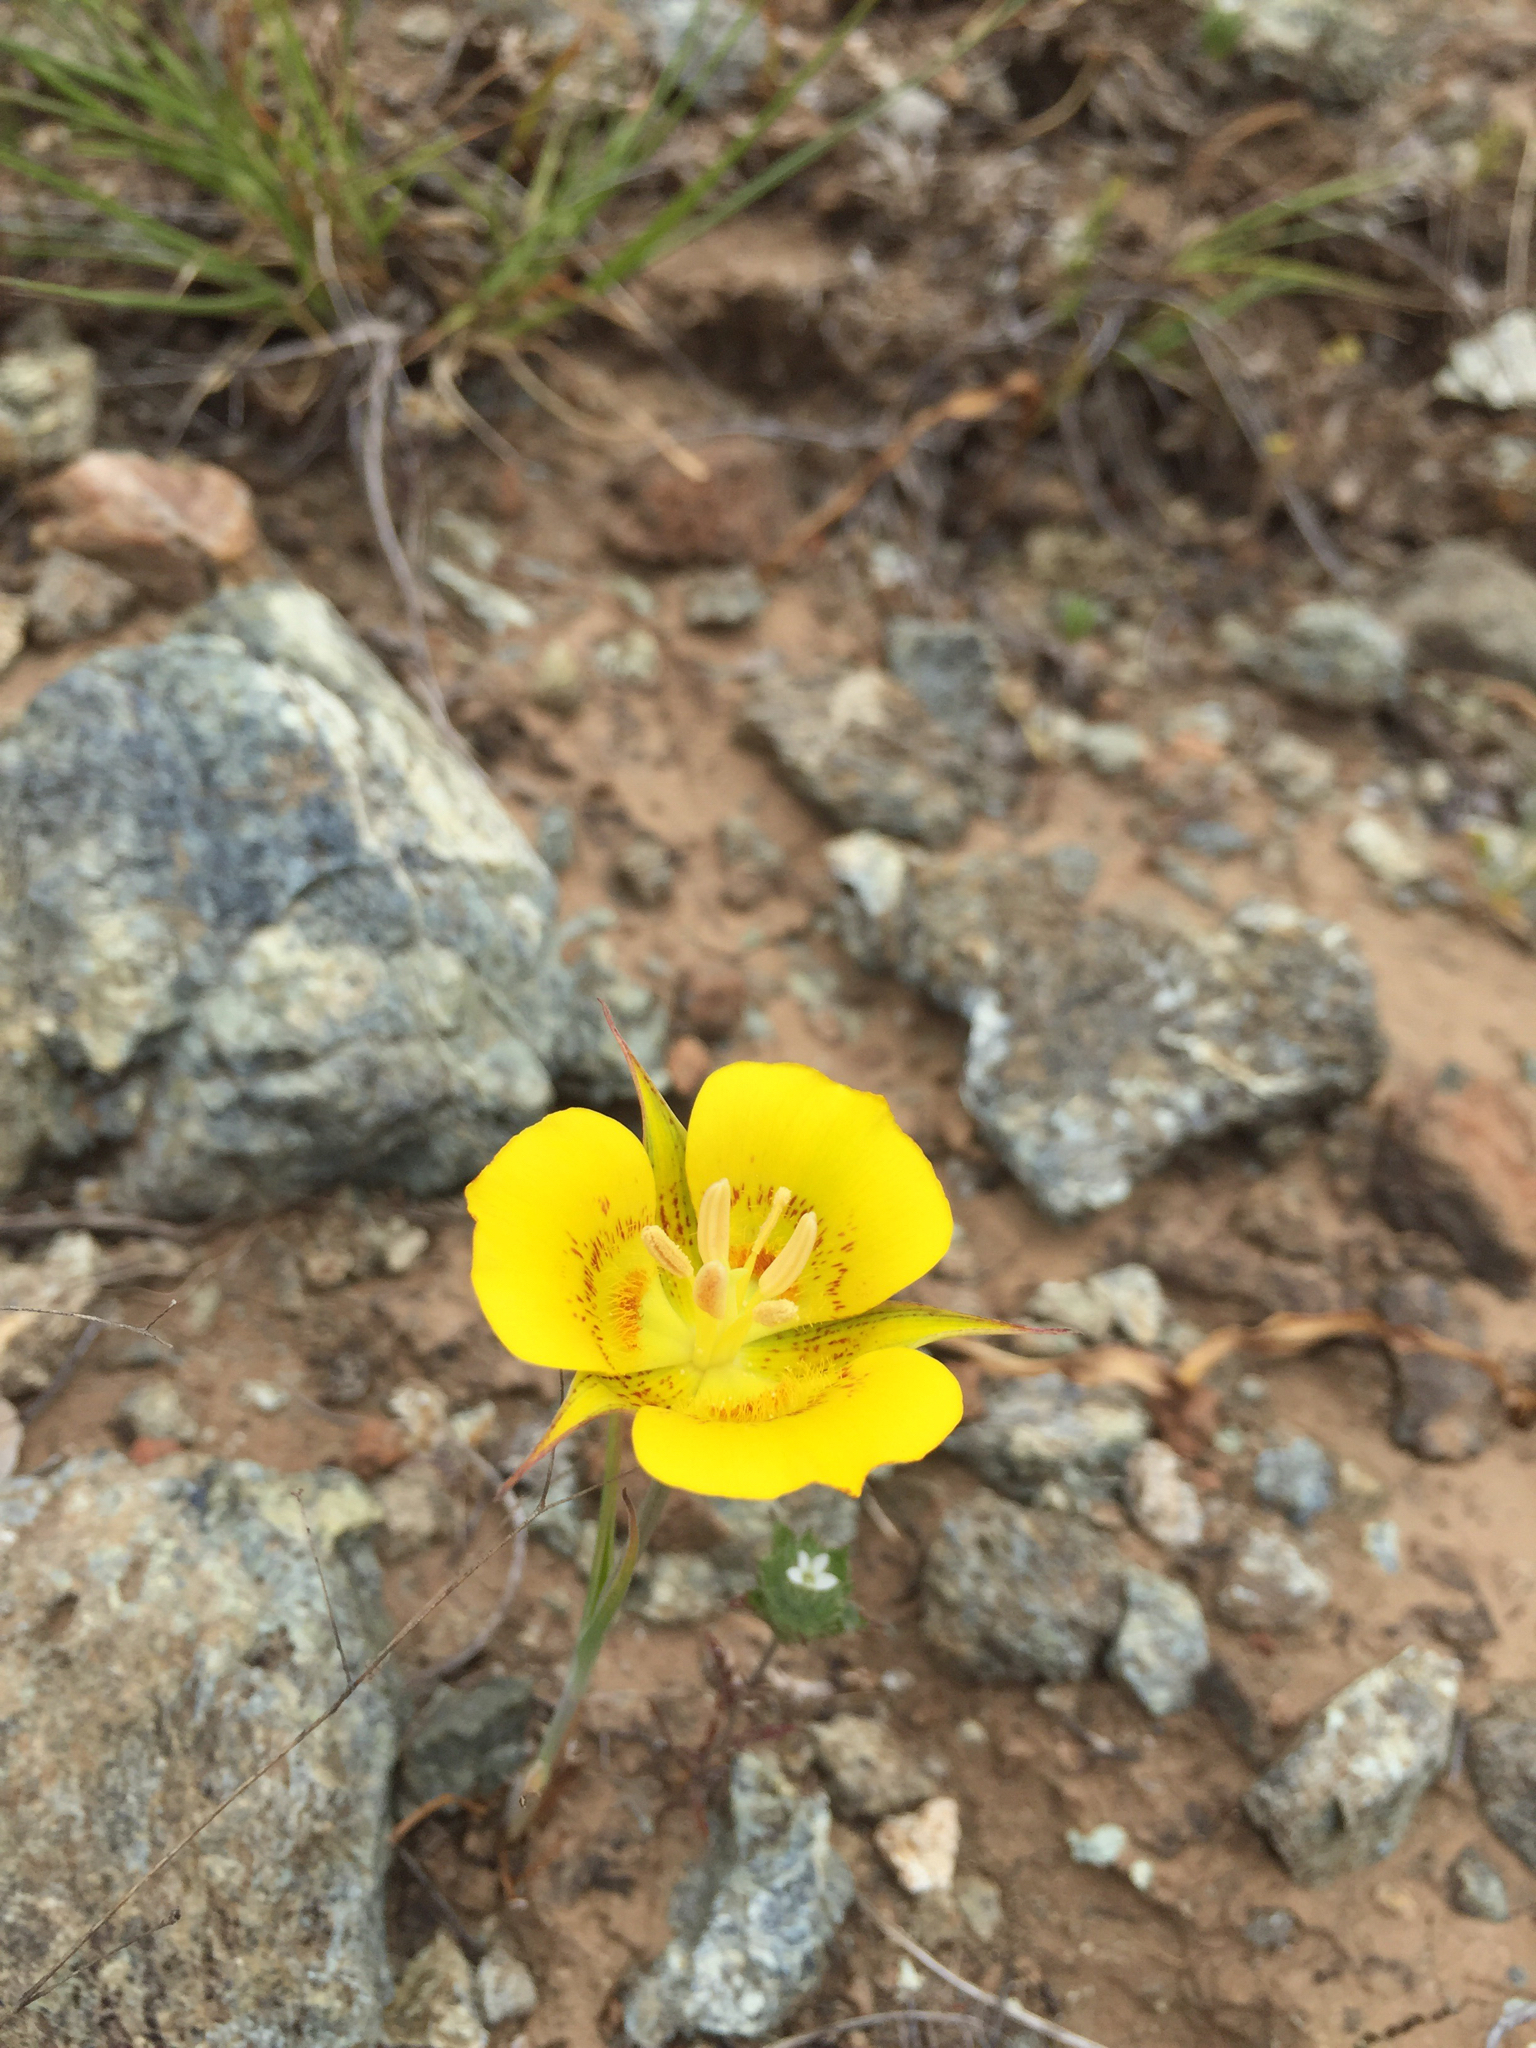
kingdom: Plantae
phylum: Tracheophyta
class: Liliopsida
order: Liliales
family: Liliaceae
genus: Calochortus
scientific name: Calochortus luteus
